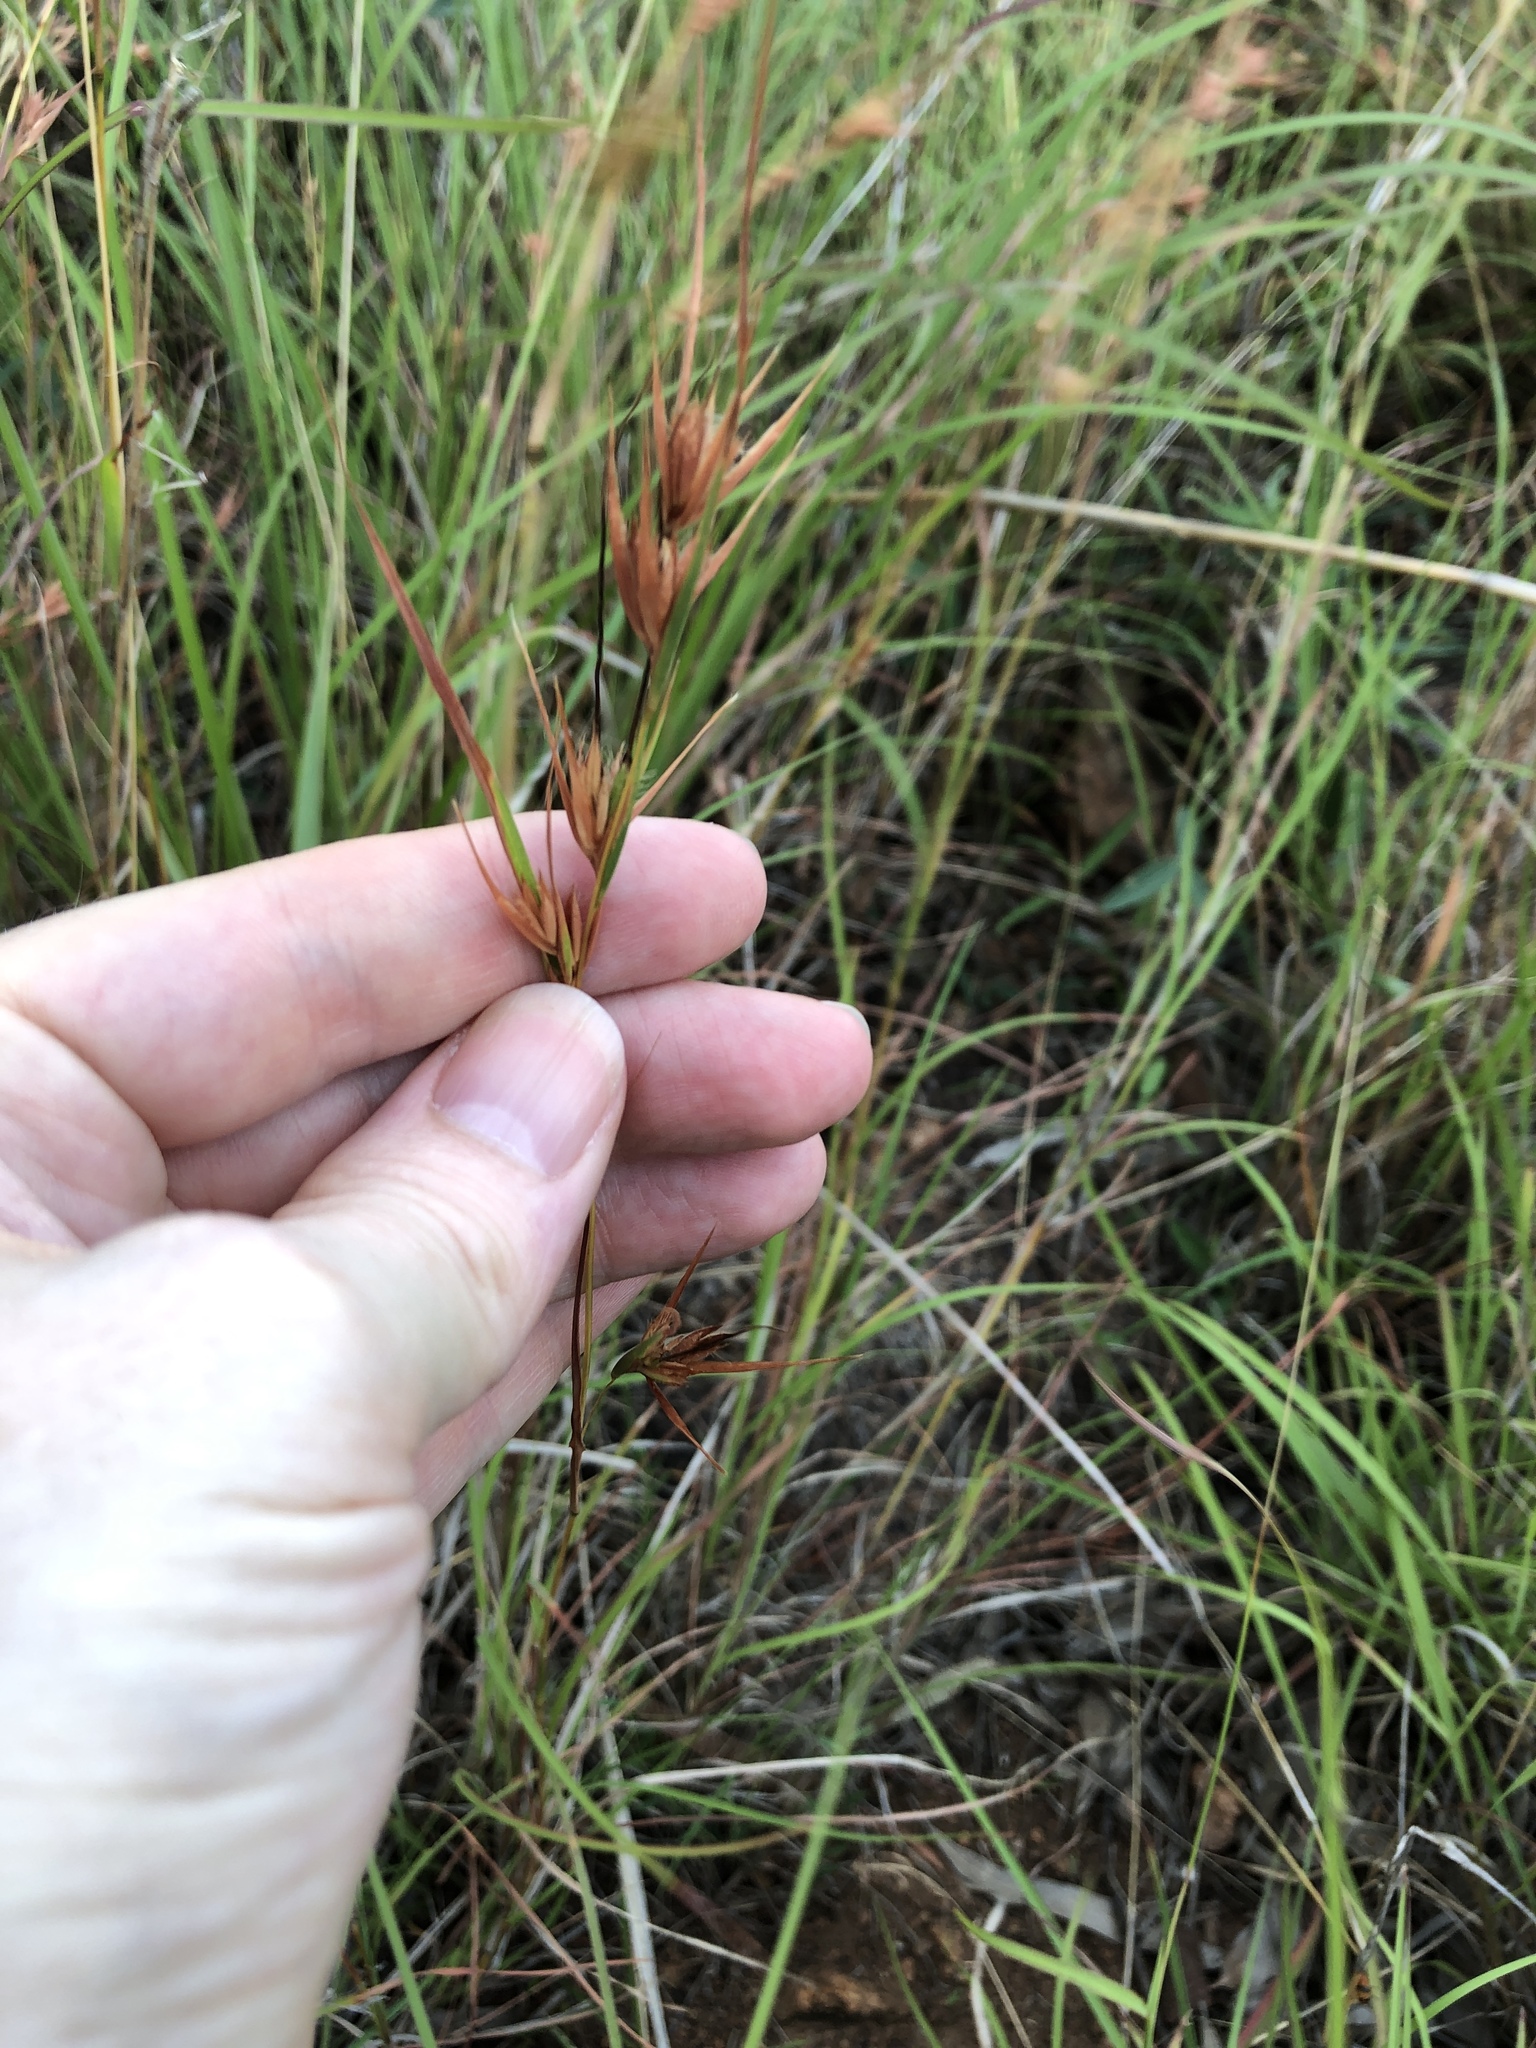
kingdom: Plantae
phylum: Tracheophyta
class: Liliopsida
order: Poales
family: Poaceae
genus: Themeda
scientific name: Themeda triandra
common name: Kangaroo grass
